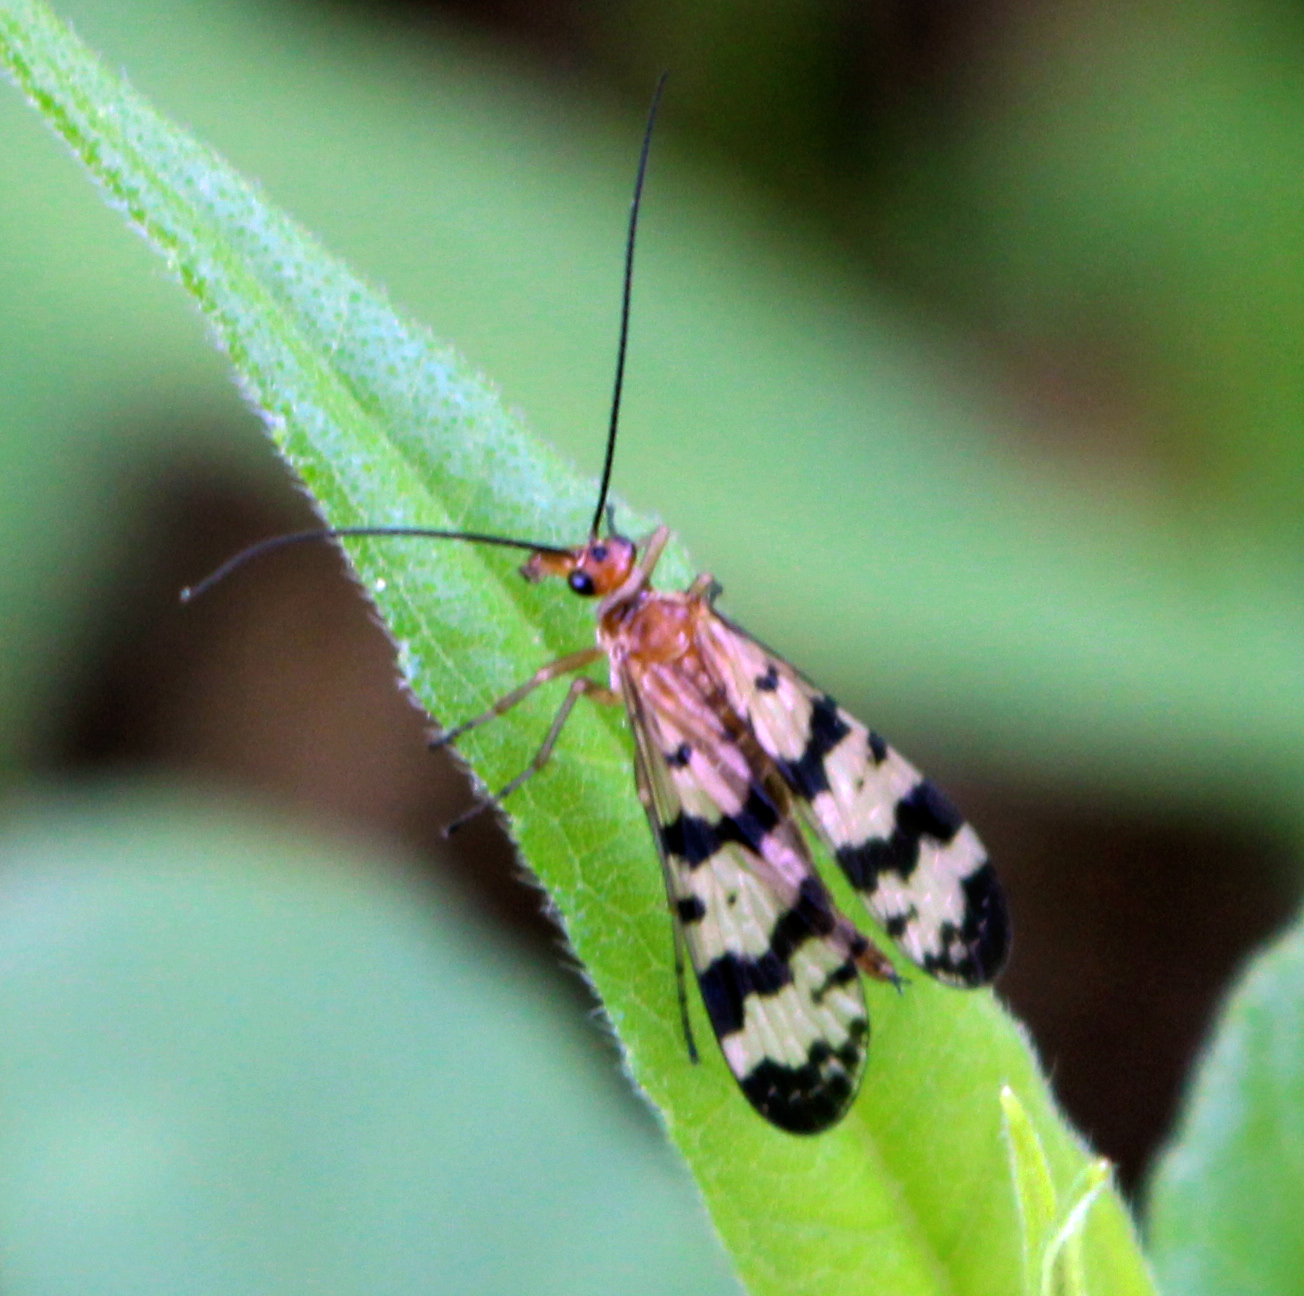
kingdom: Animalia
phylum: Arthropoda
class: Insecta
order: Mecoptera
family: Panorpidae
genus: Panorpa
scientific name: Panorpa subfurcata
